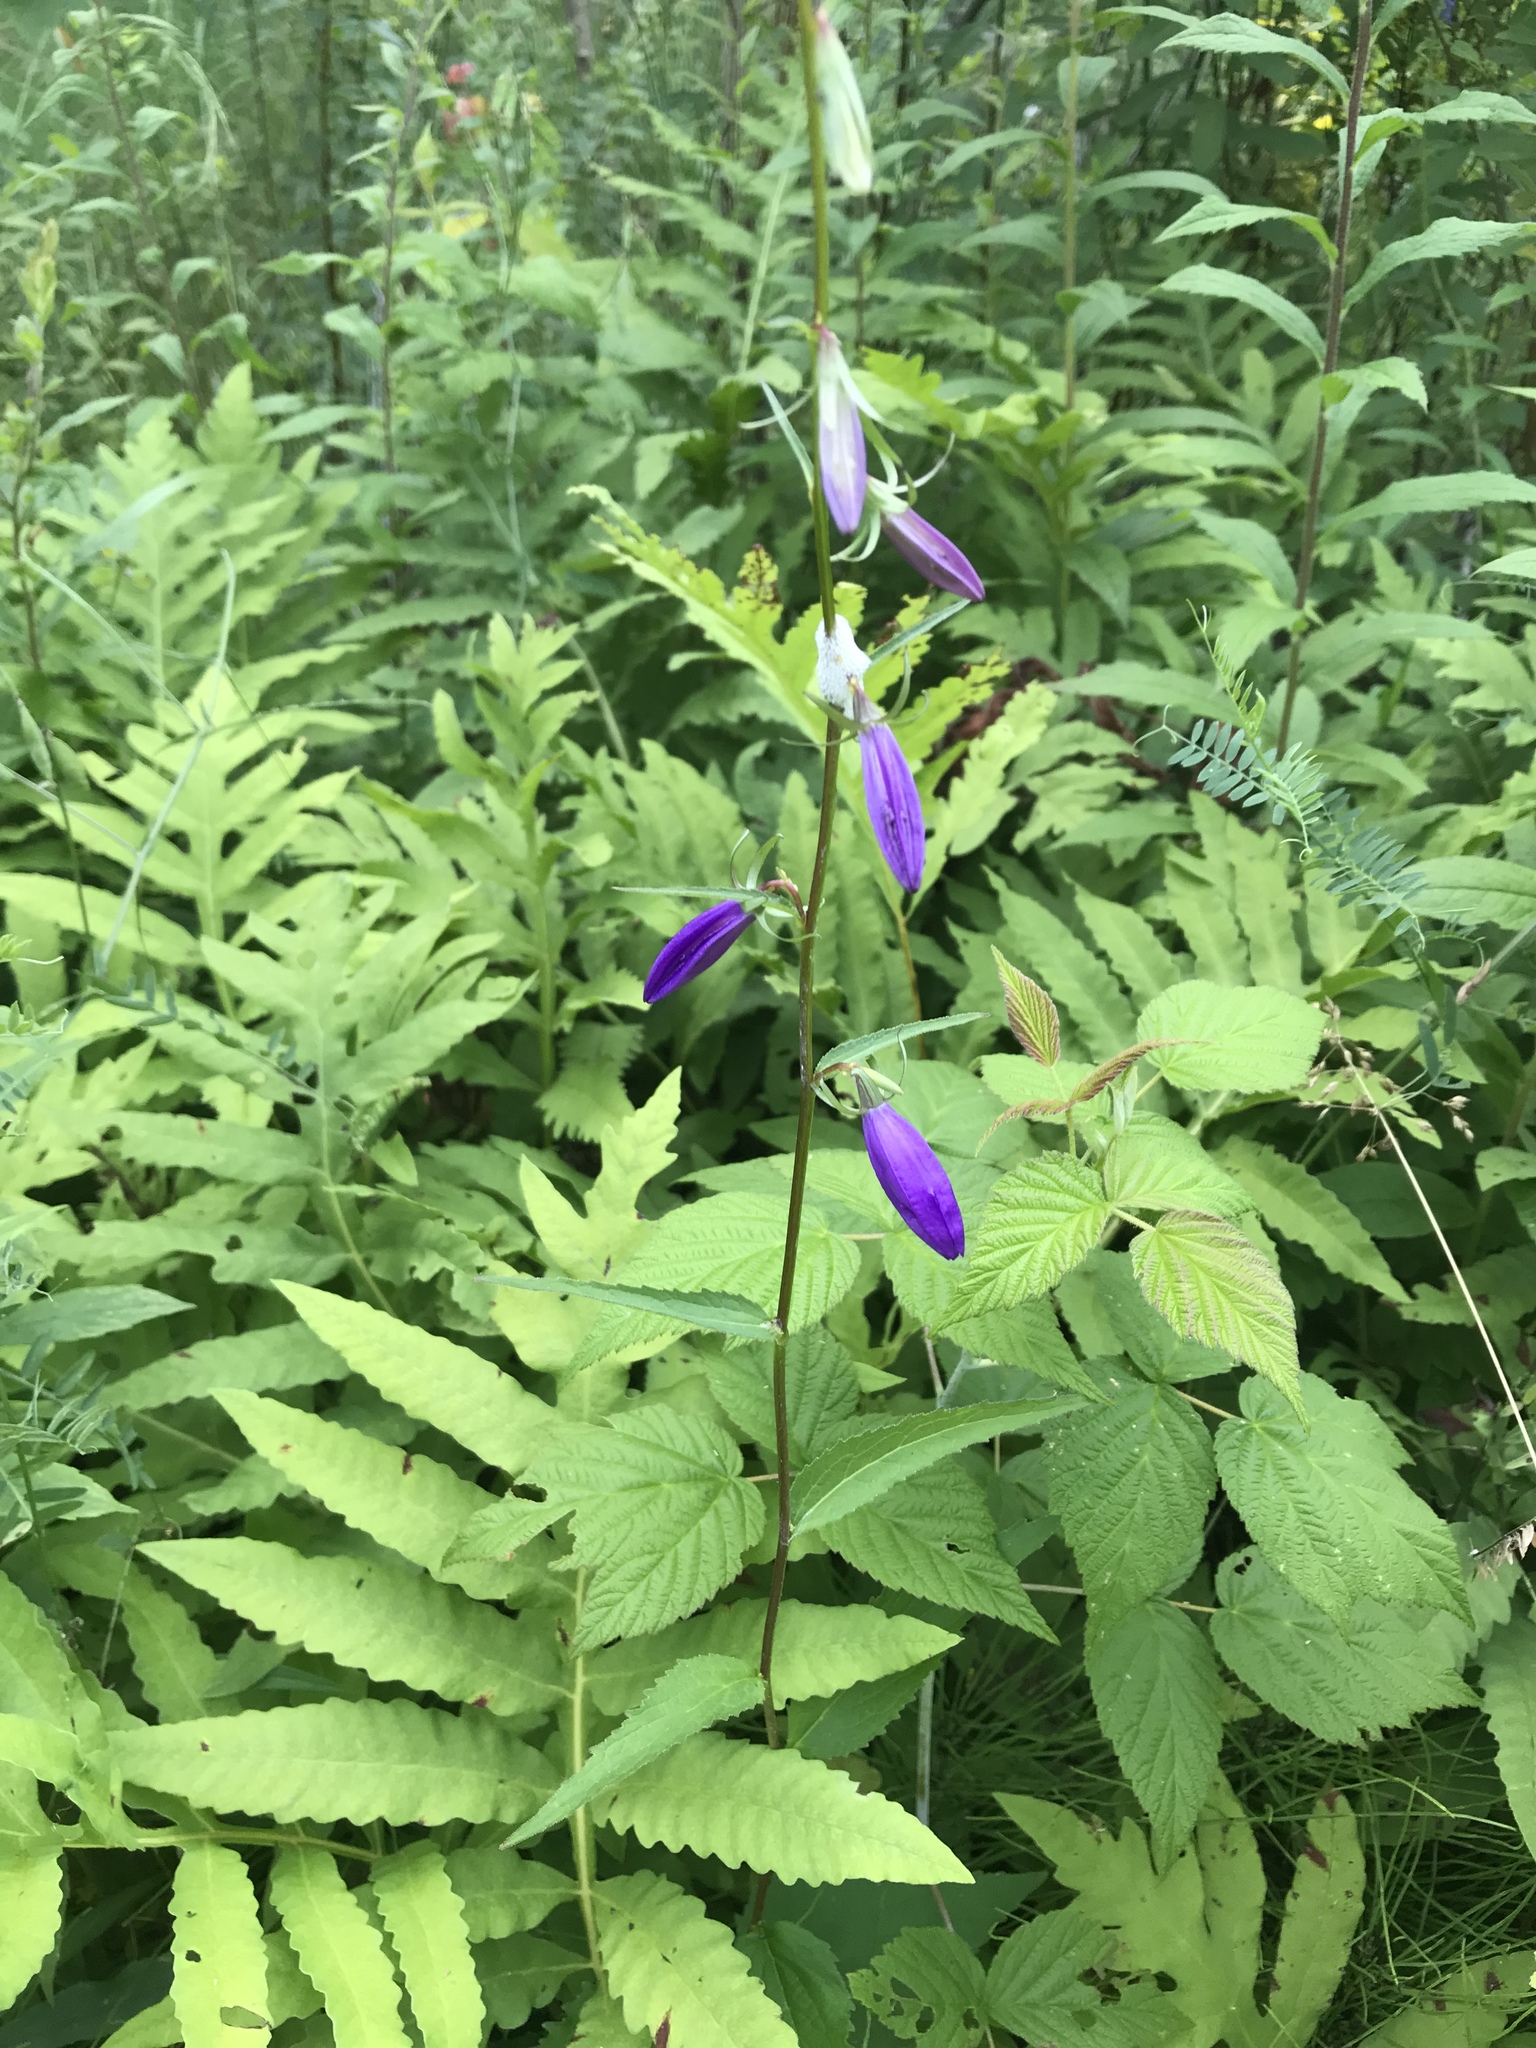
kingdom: Plantae
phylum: Tracheophyta
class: Magnoliopsida
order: Asterales
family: Campanulaceae
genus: Campanula
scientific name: Campanula rapunculoides
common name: Creeping bellflower
